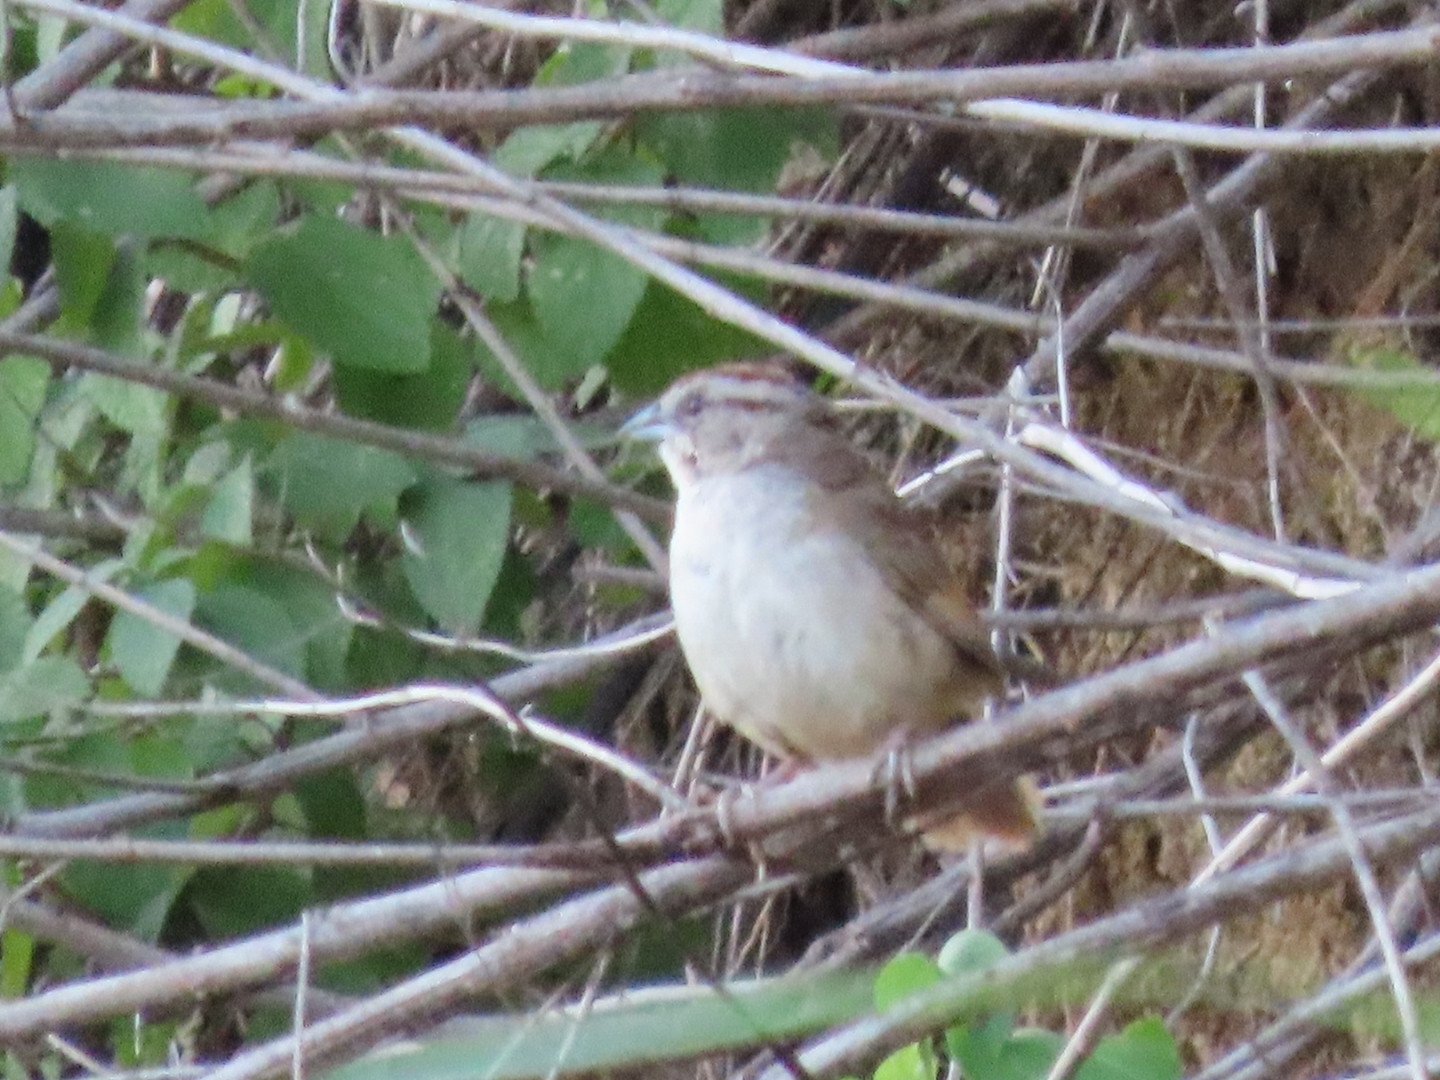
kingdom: Animalia
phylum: Chordata
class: Aves
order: Passeriformes
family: Passerellidae
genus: Aimophila
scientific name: Aimophila rufescens
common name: Rusty sparrow
